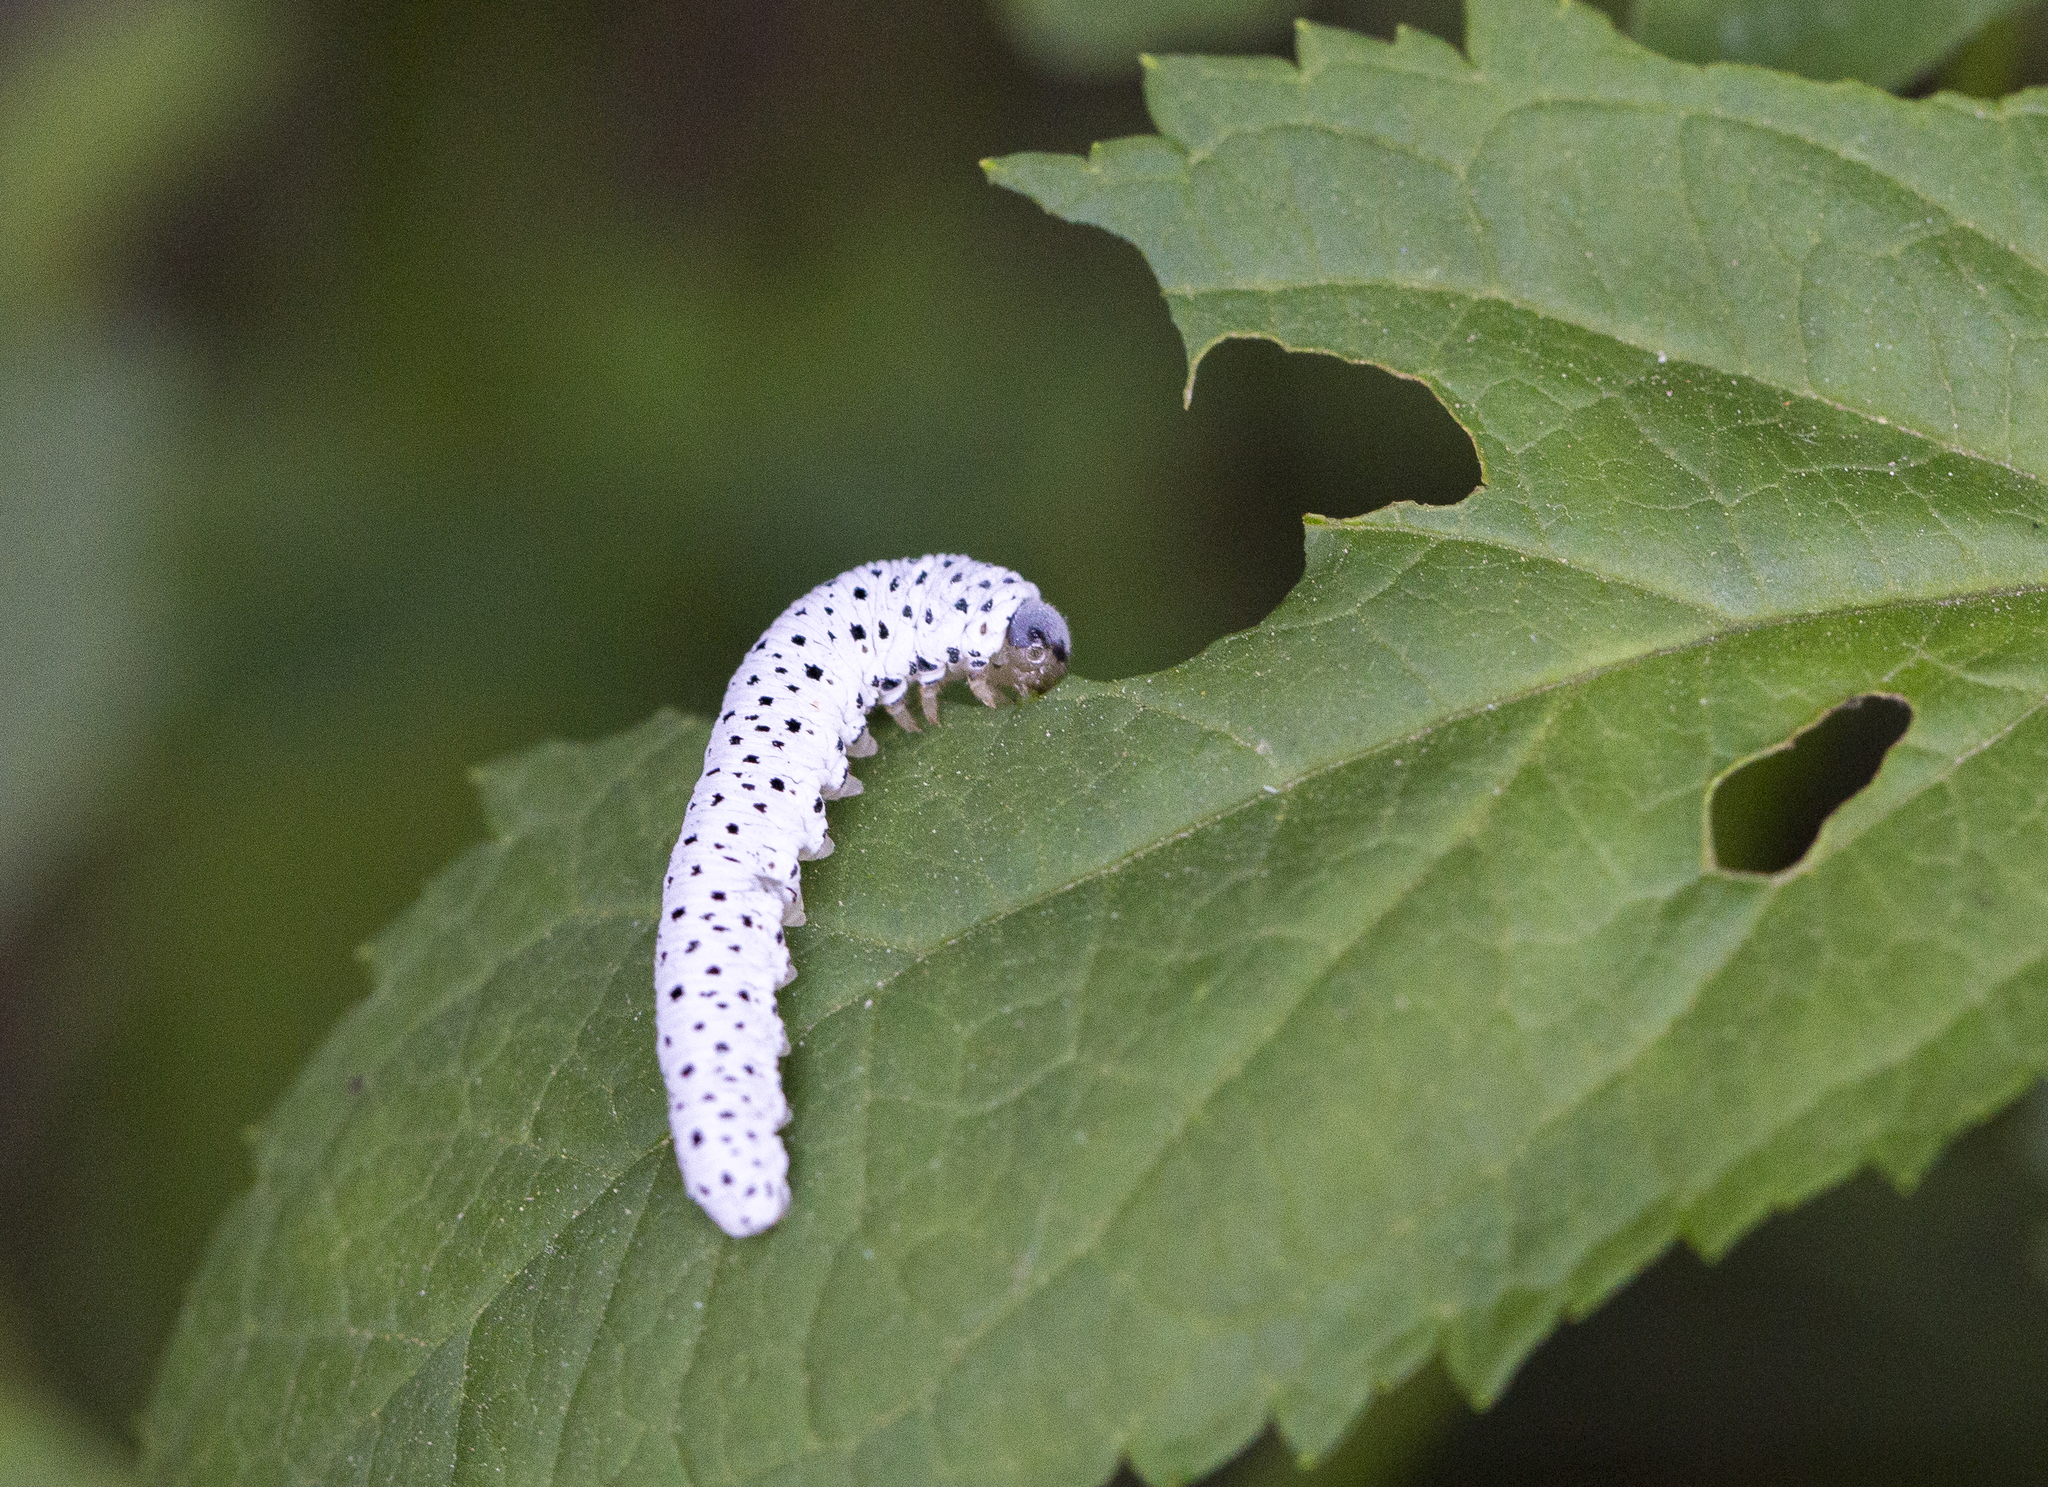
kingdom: Animalia
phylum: Arthropoda
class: Insecta
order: Hymenoptera
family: Tenthredinidae
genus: Tenthredo
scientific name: Tenthredo scrophulariae
